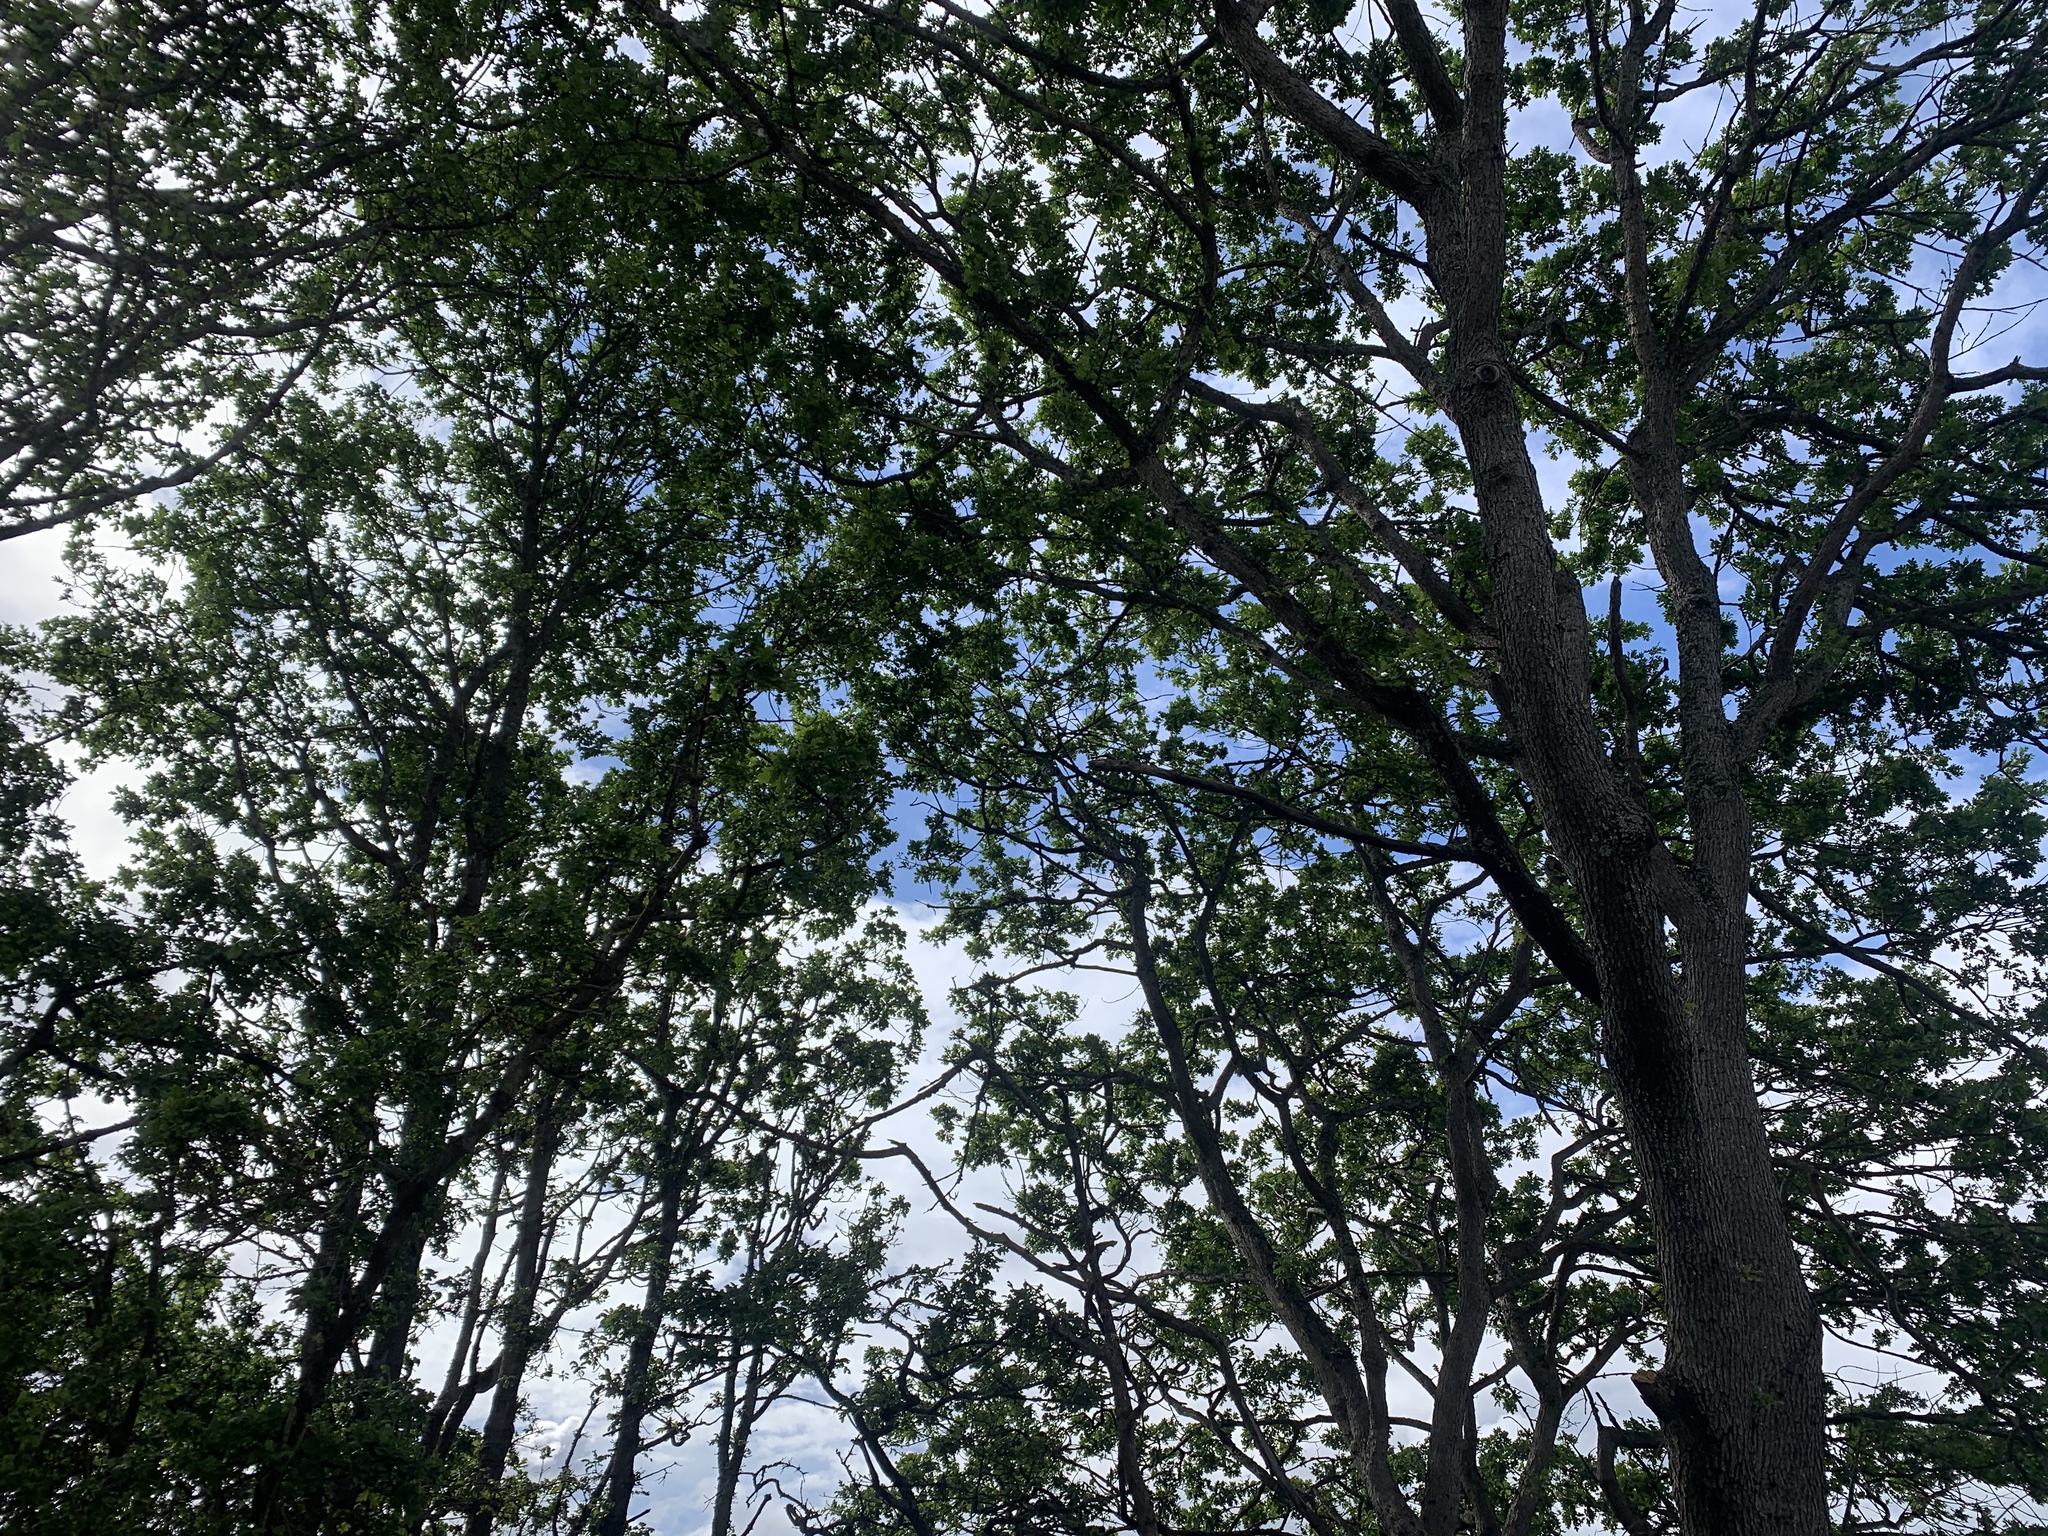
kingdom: Plantae
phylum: Tracheophyta
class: Magnoliopsida
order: Fagales
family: Fagaceae
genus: Quercus
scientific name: Quercus garryana
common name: Garry oak
